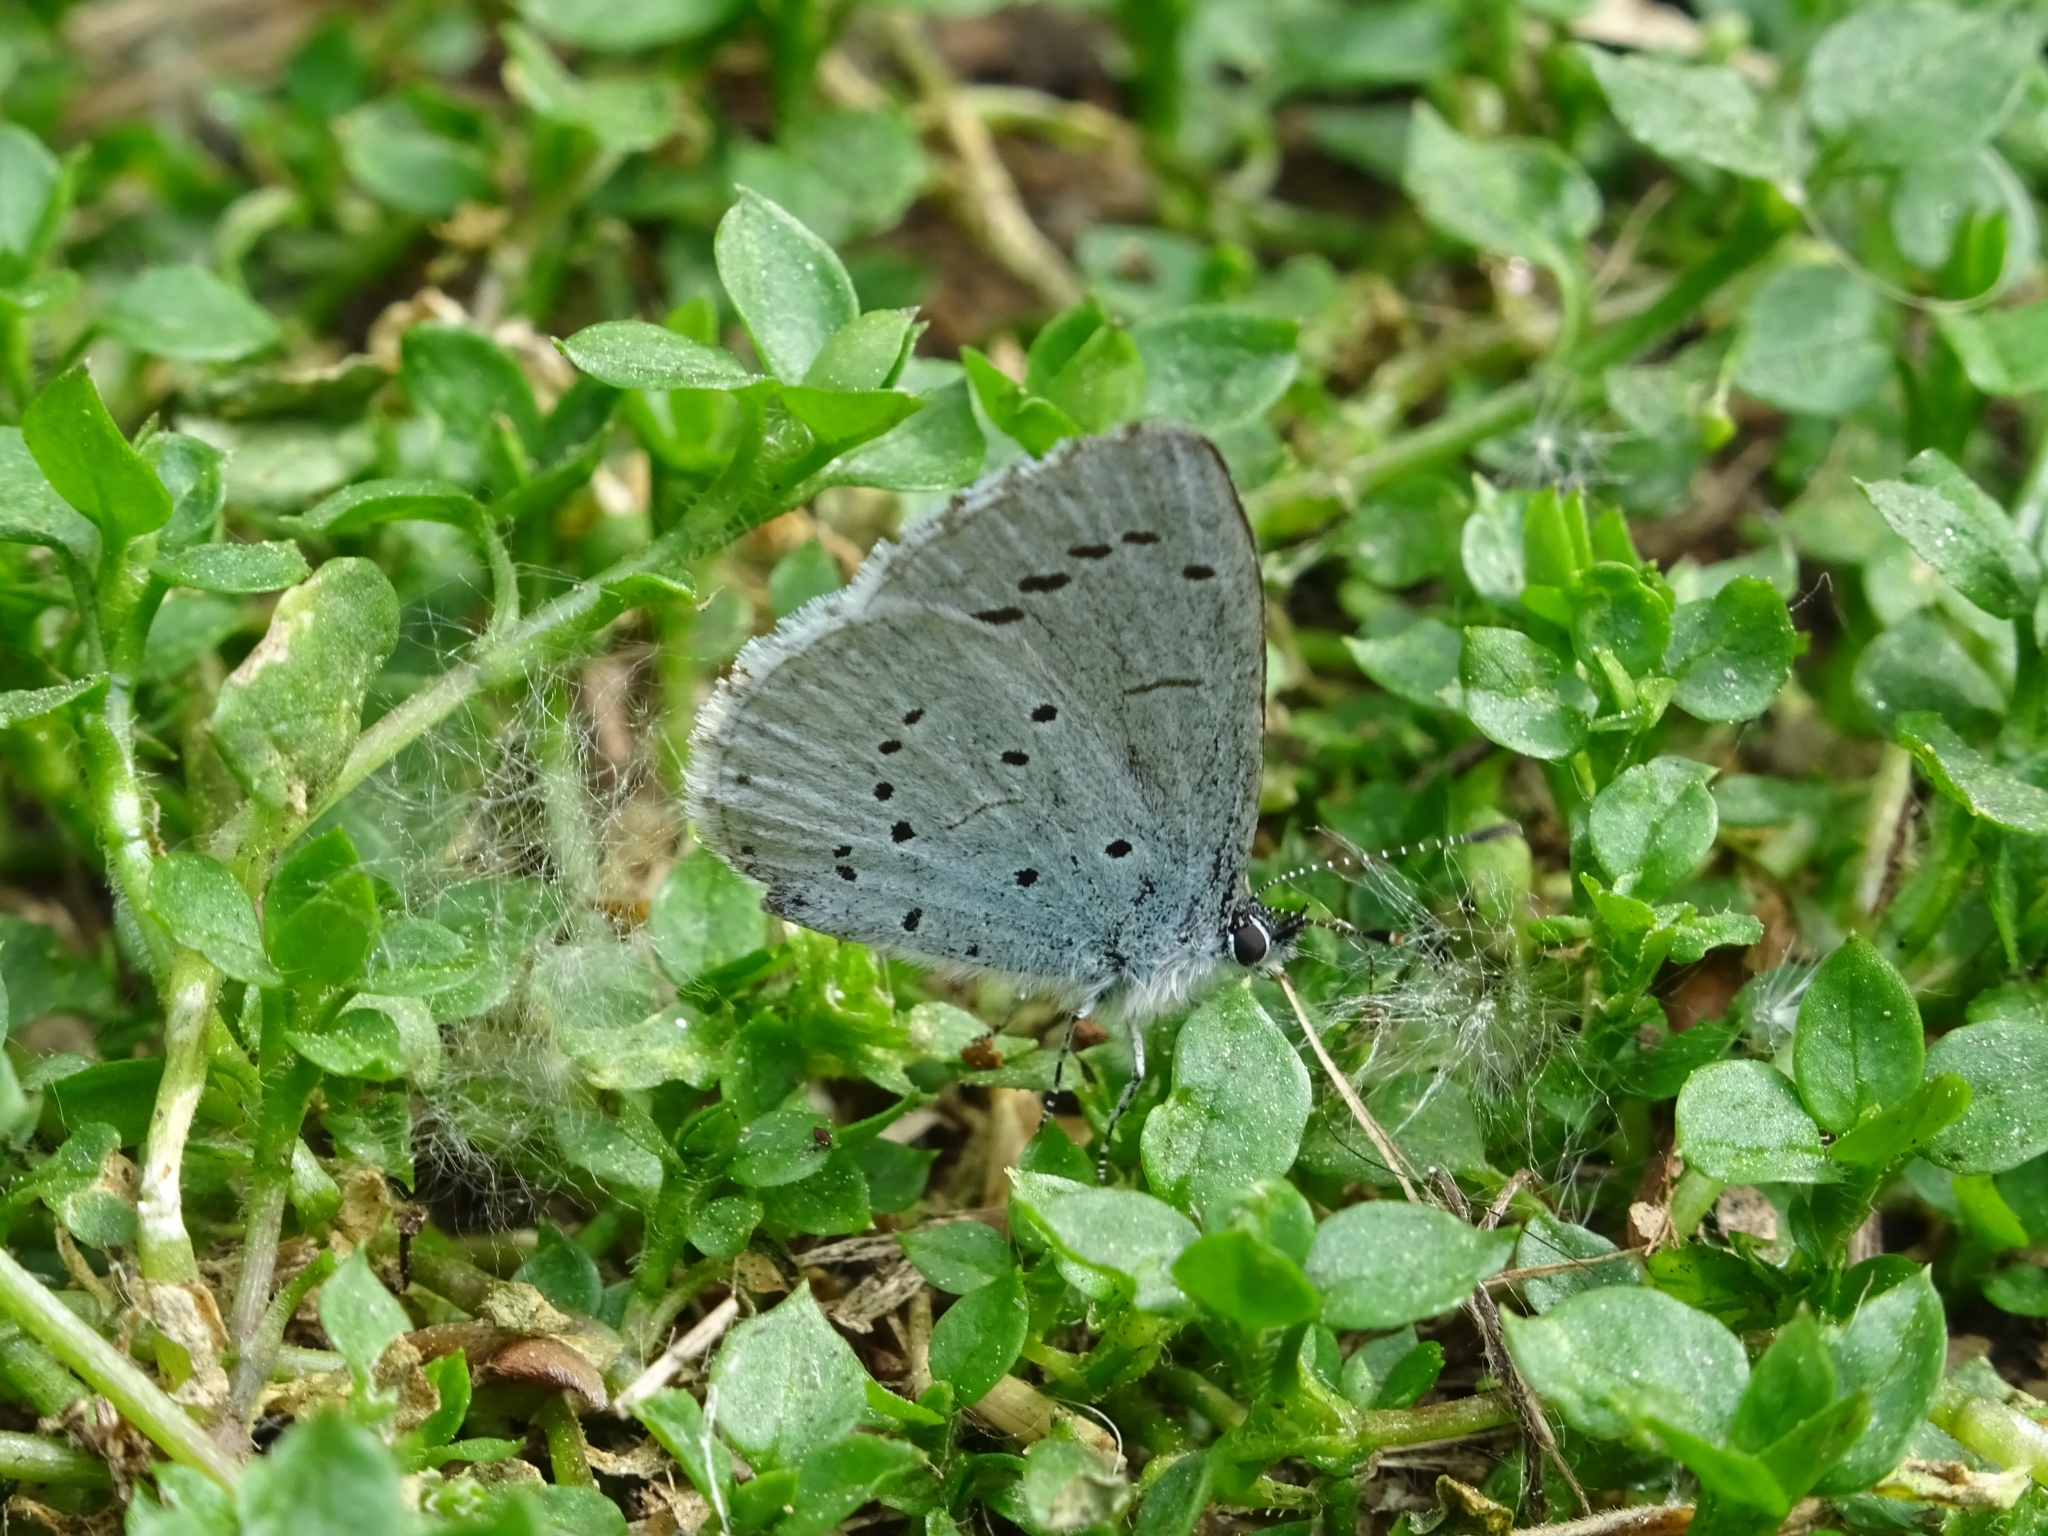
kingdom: Animalia
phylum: Arthropoda
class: Insecta
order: Lepidoptera
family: Lycaenidae
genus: Celastrina
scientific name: Celastrina argiolus
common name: Holly blue
